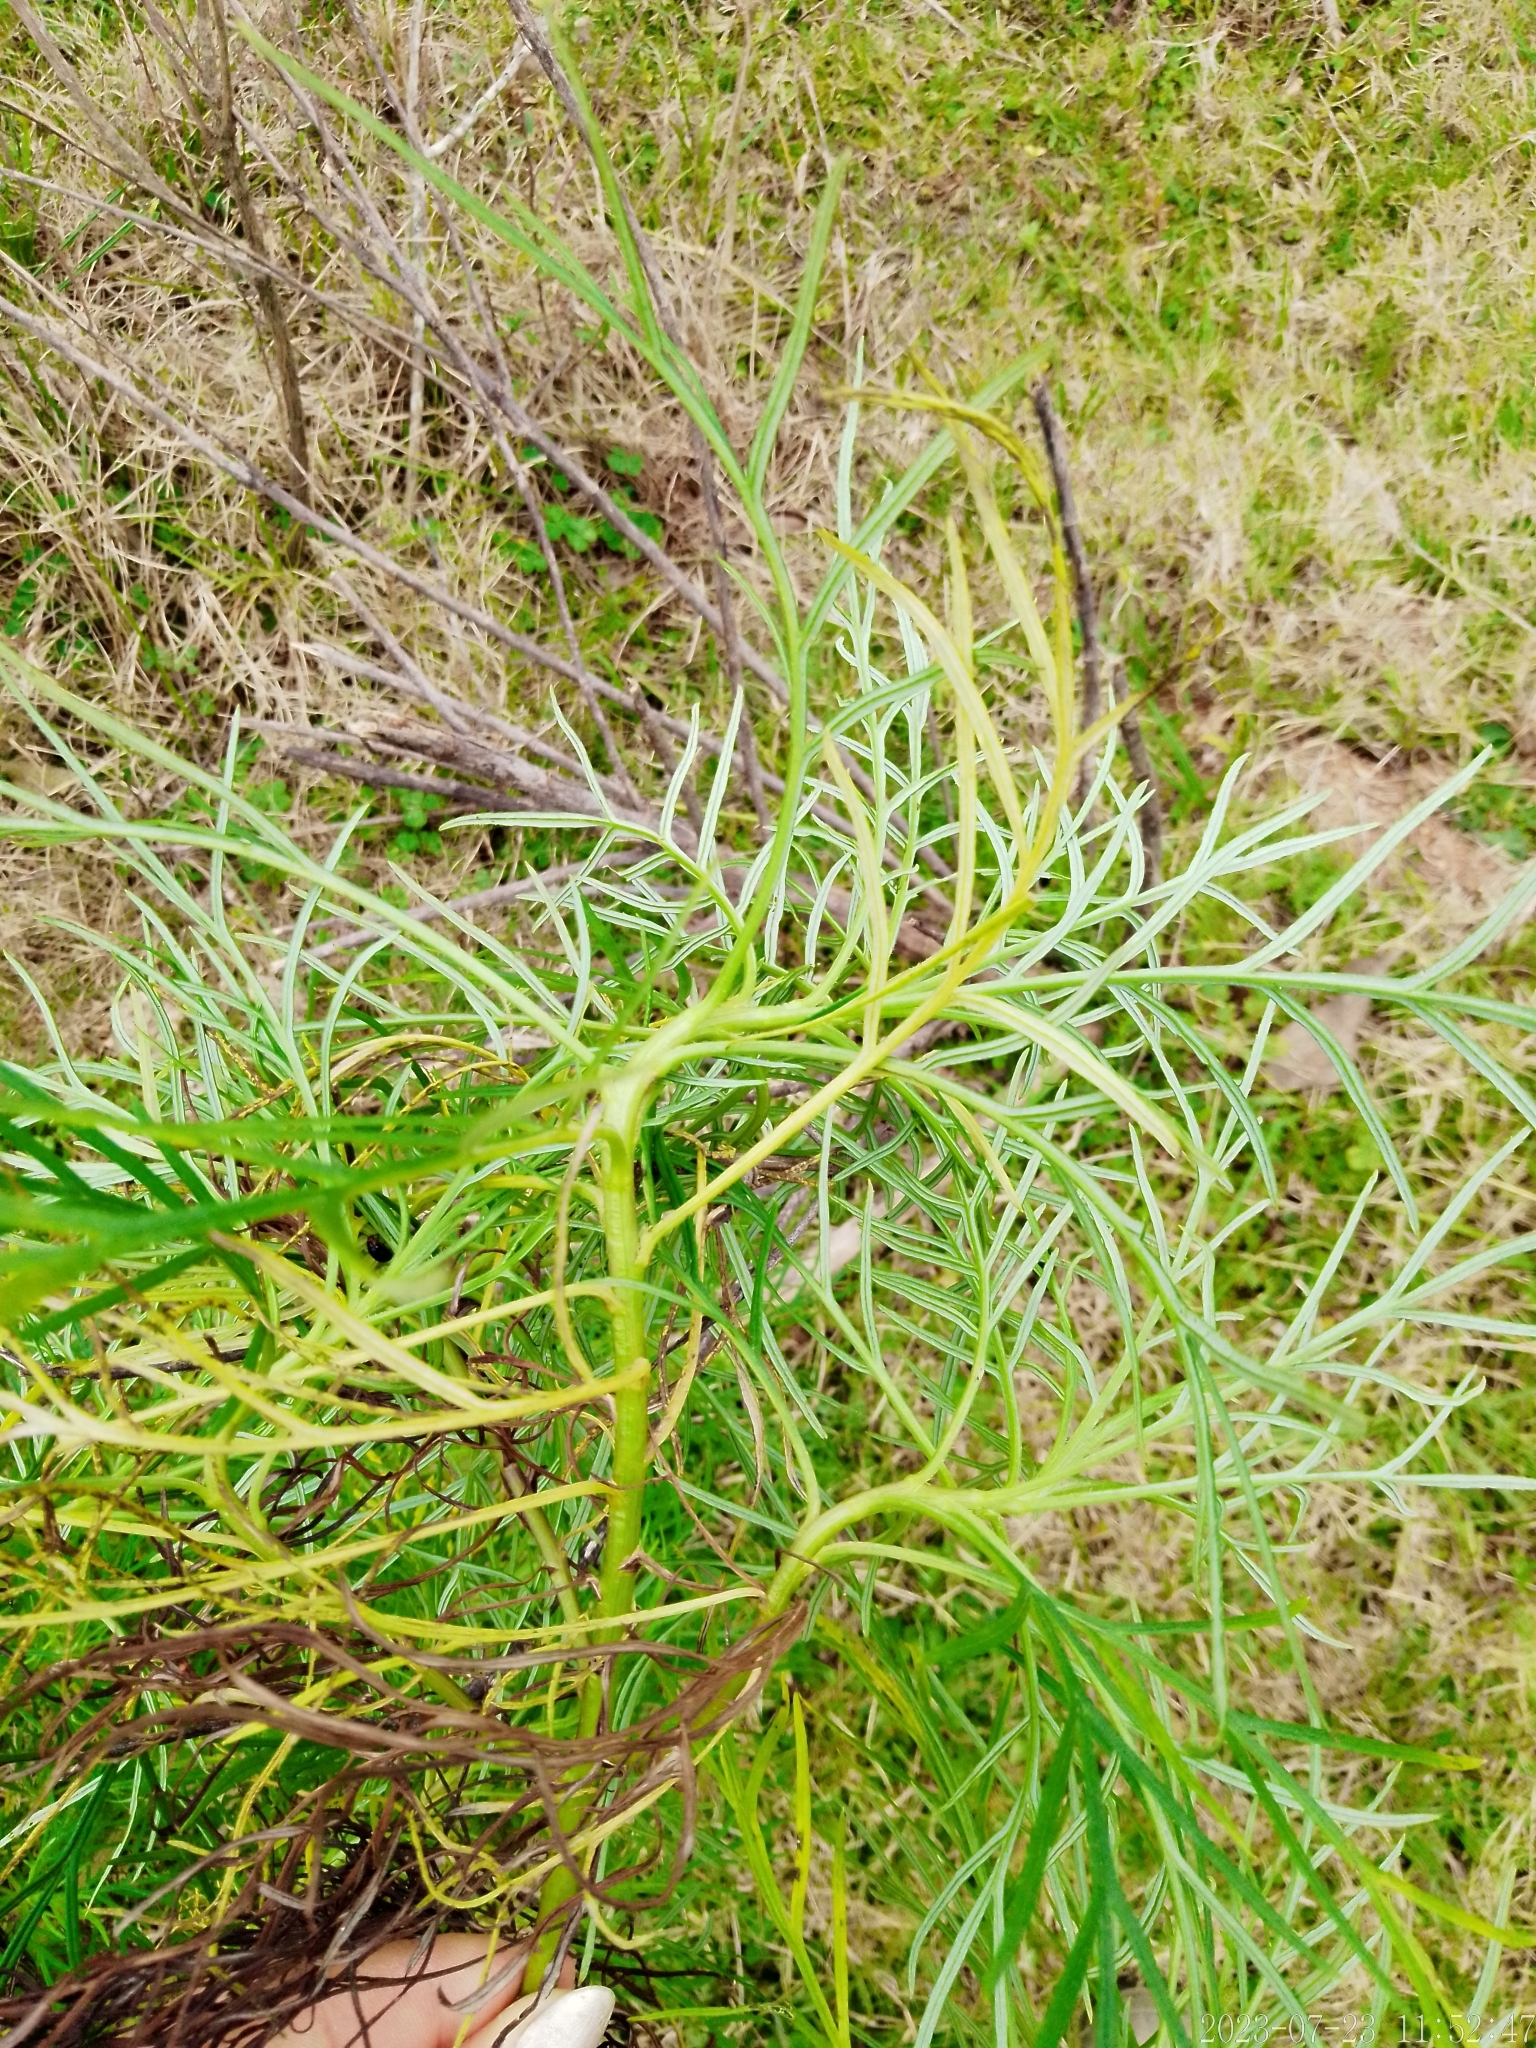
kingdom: Plantae
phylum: Tracheophyta
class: Magnoliopsida
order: Asterales
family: Asteraceae
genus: Senecio
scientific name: Senecio brasiliensis
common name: Hemp-leaf ragwort
